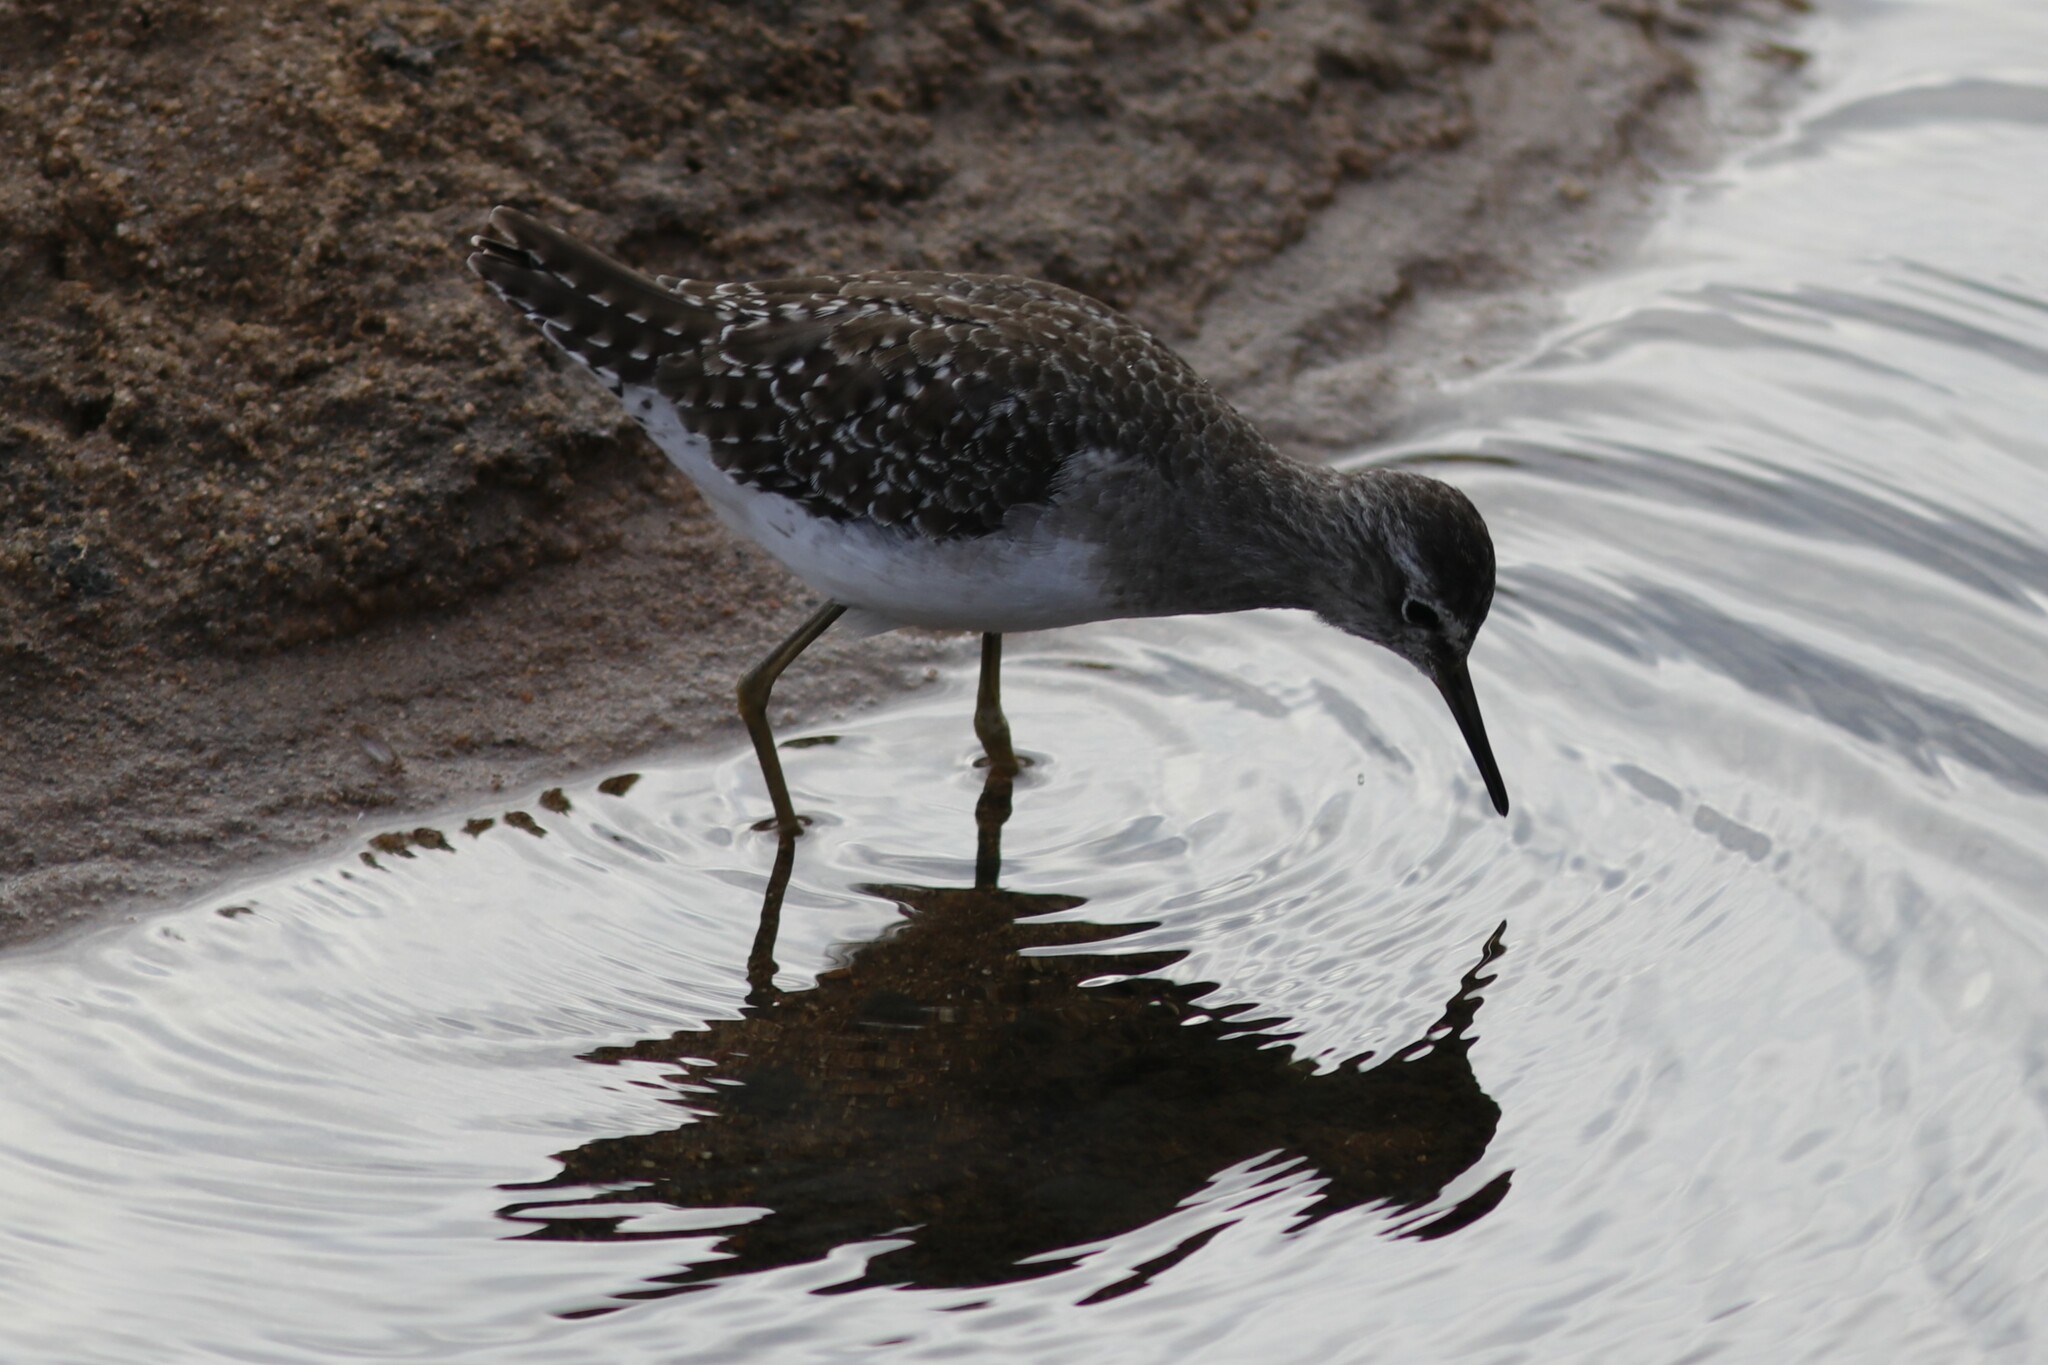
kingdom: Animalia
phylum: Chordata
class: Aves
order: Charadriiformes
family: Scolopacidae
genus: Tringa
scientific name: Tringa glareola
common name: Wood sandpiper
